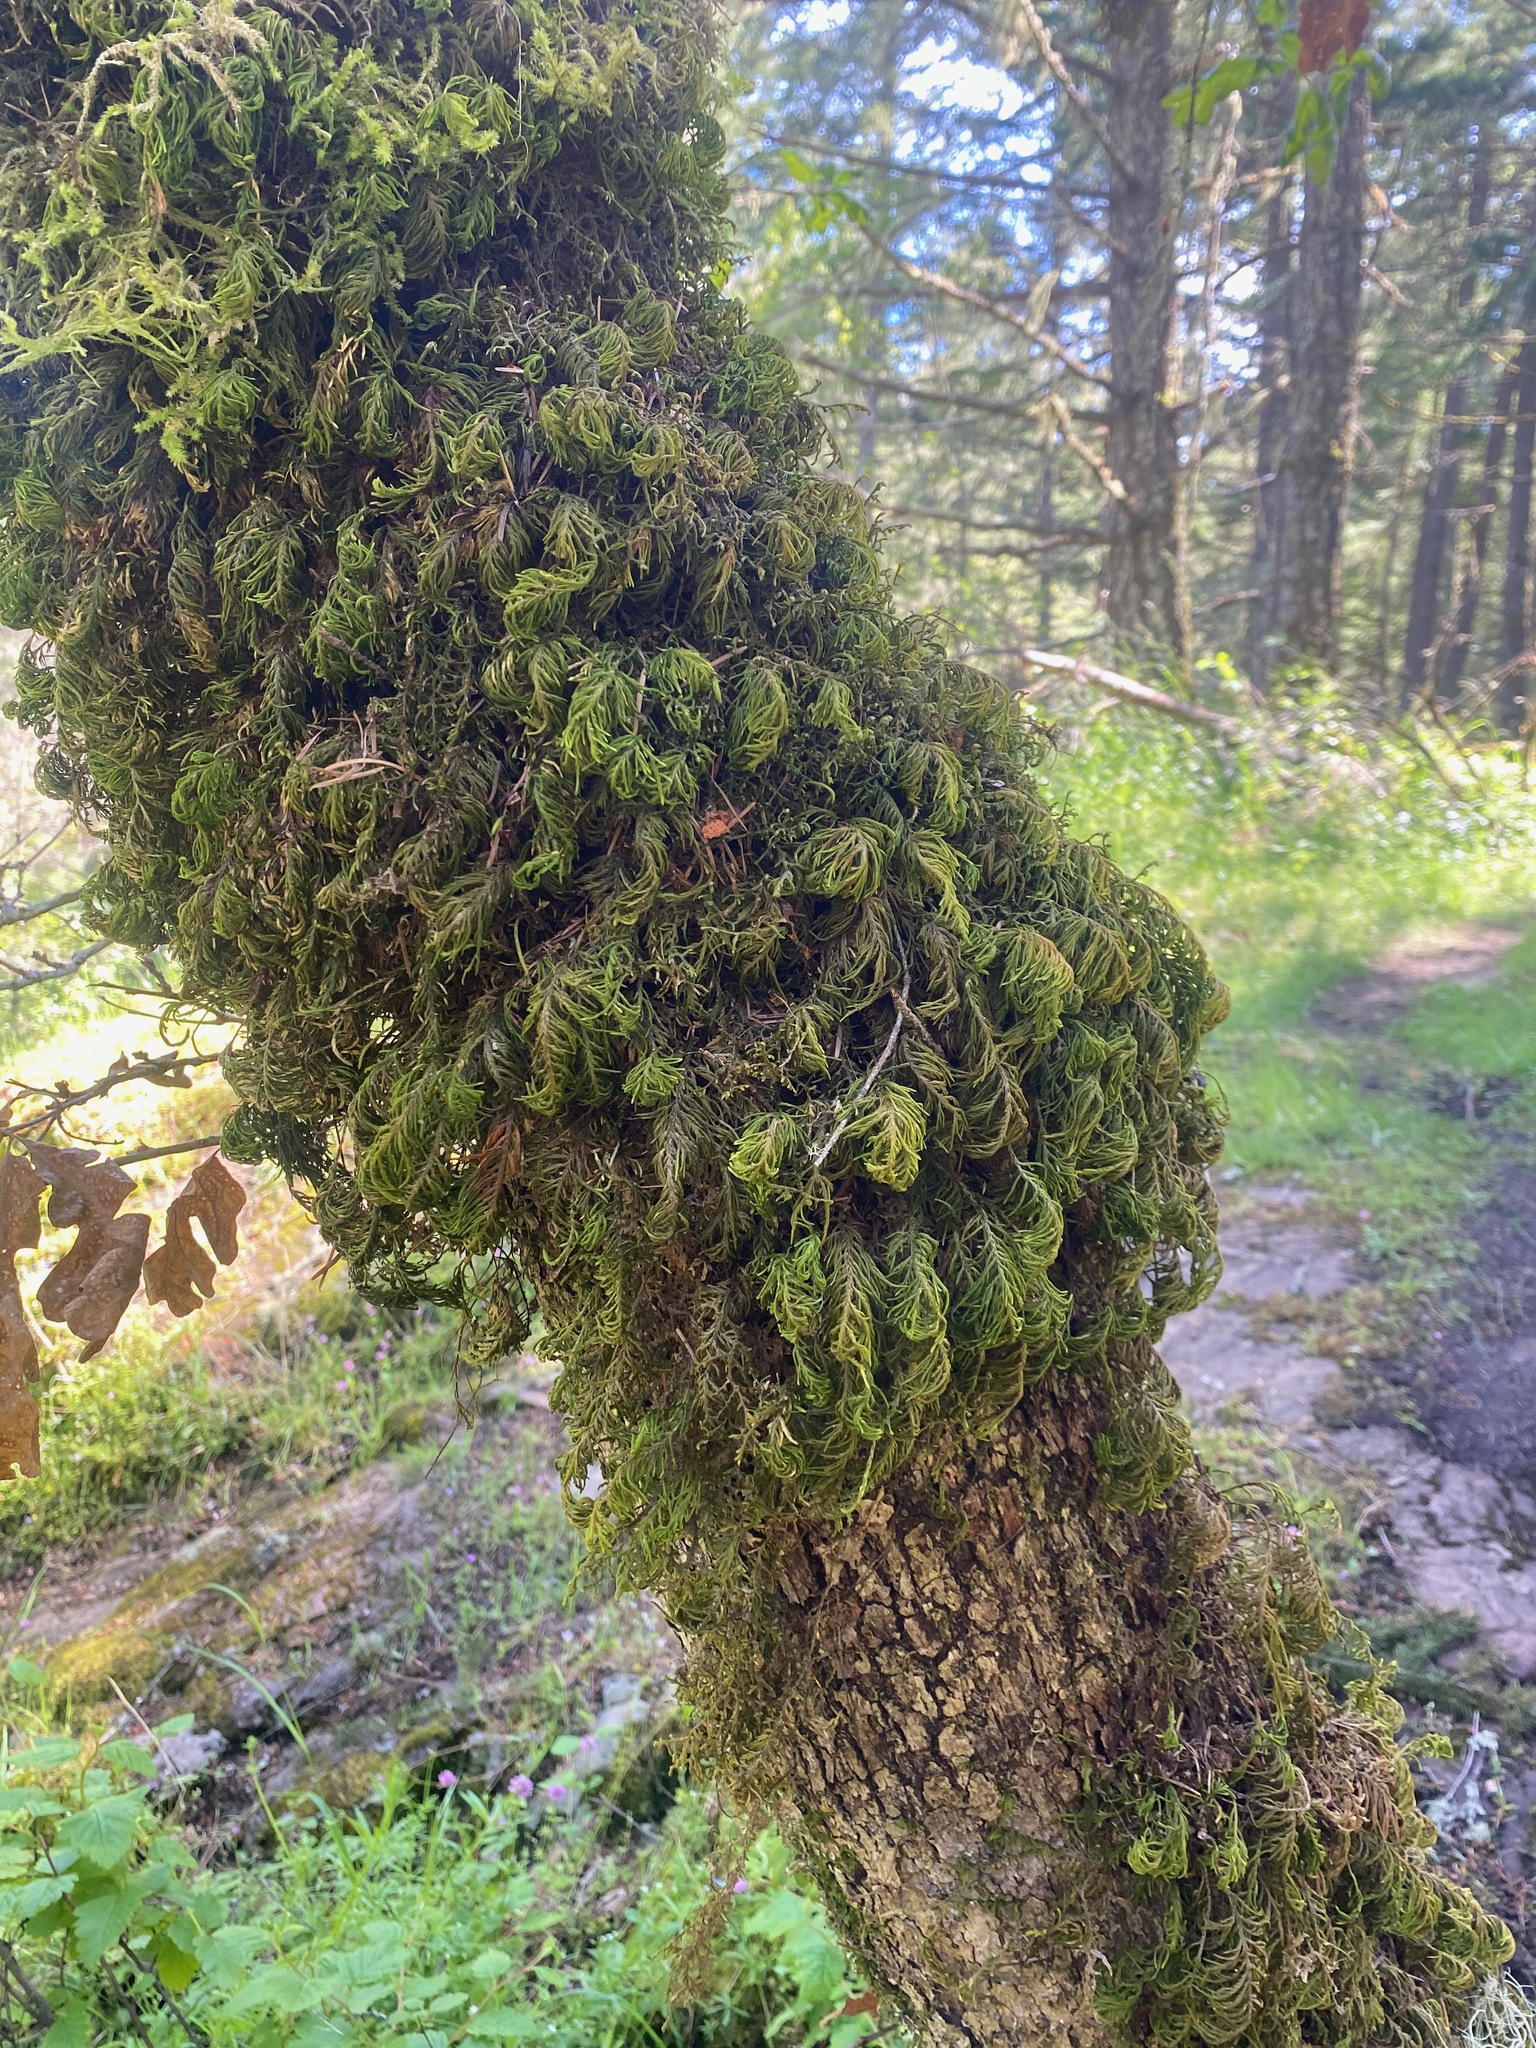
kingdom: Plantae
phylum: Bryophyta
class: Bryopsida
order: Hypnales
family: Cryphaeaceae
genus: Dendroalsia
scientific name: Dendroalsia abietina
